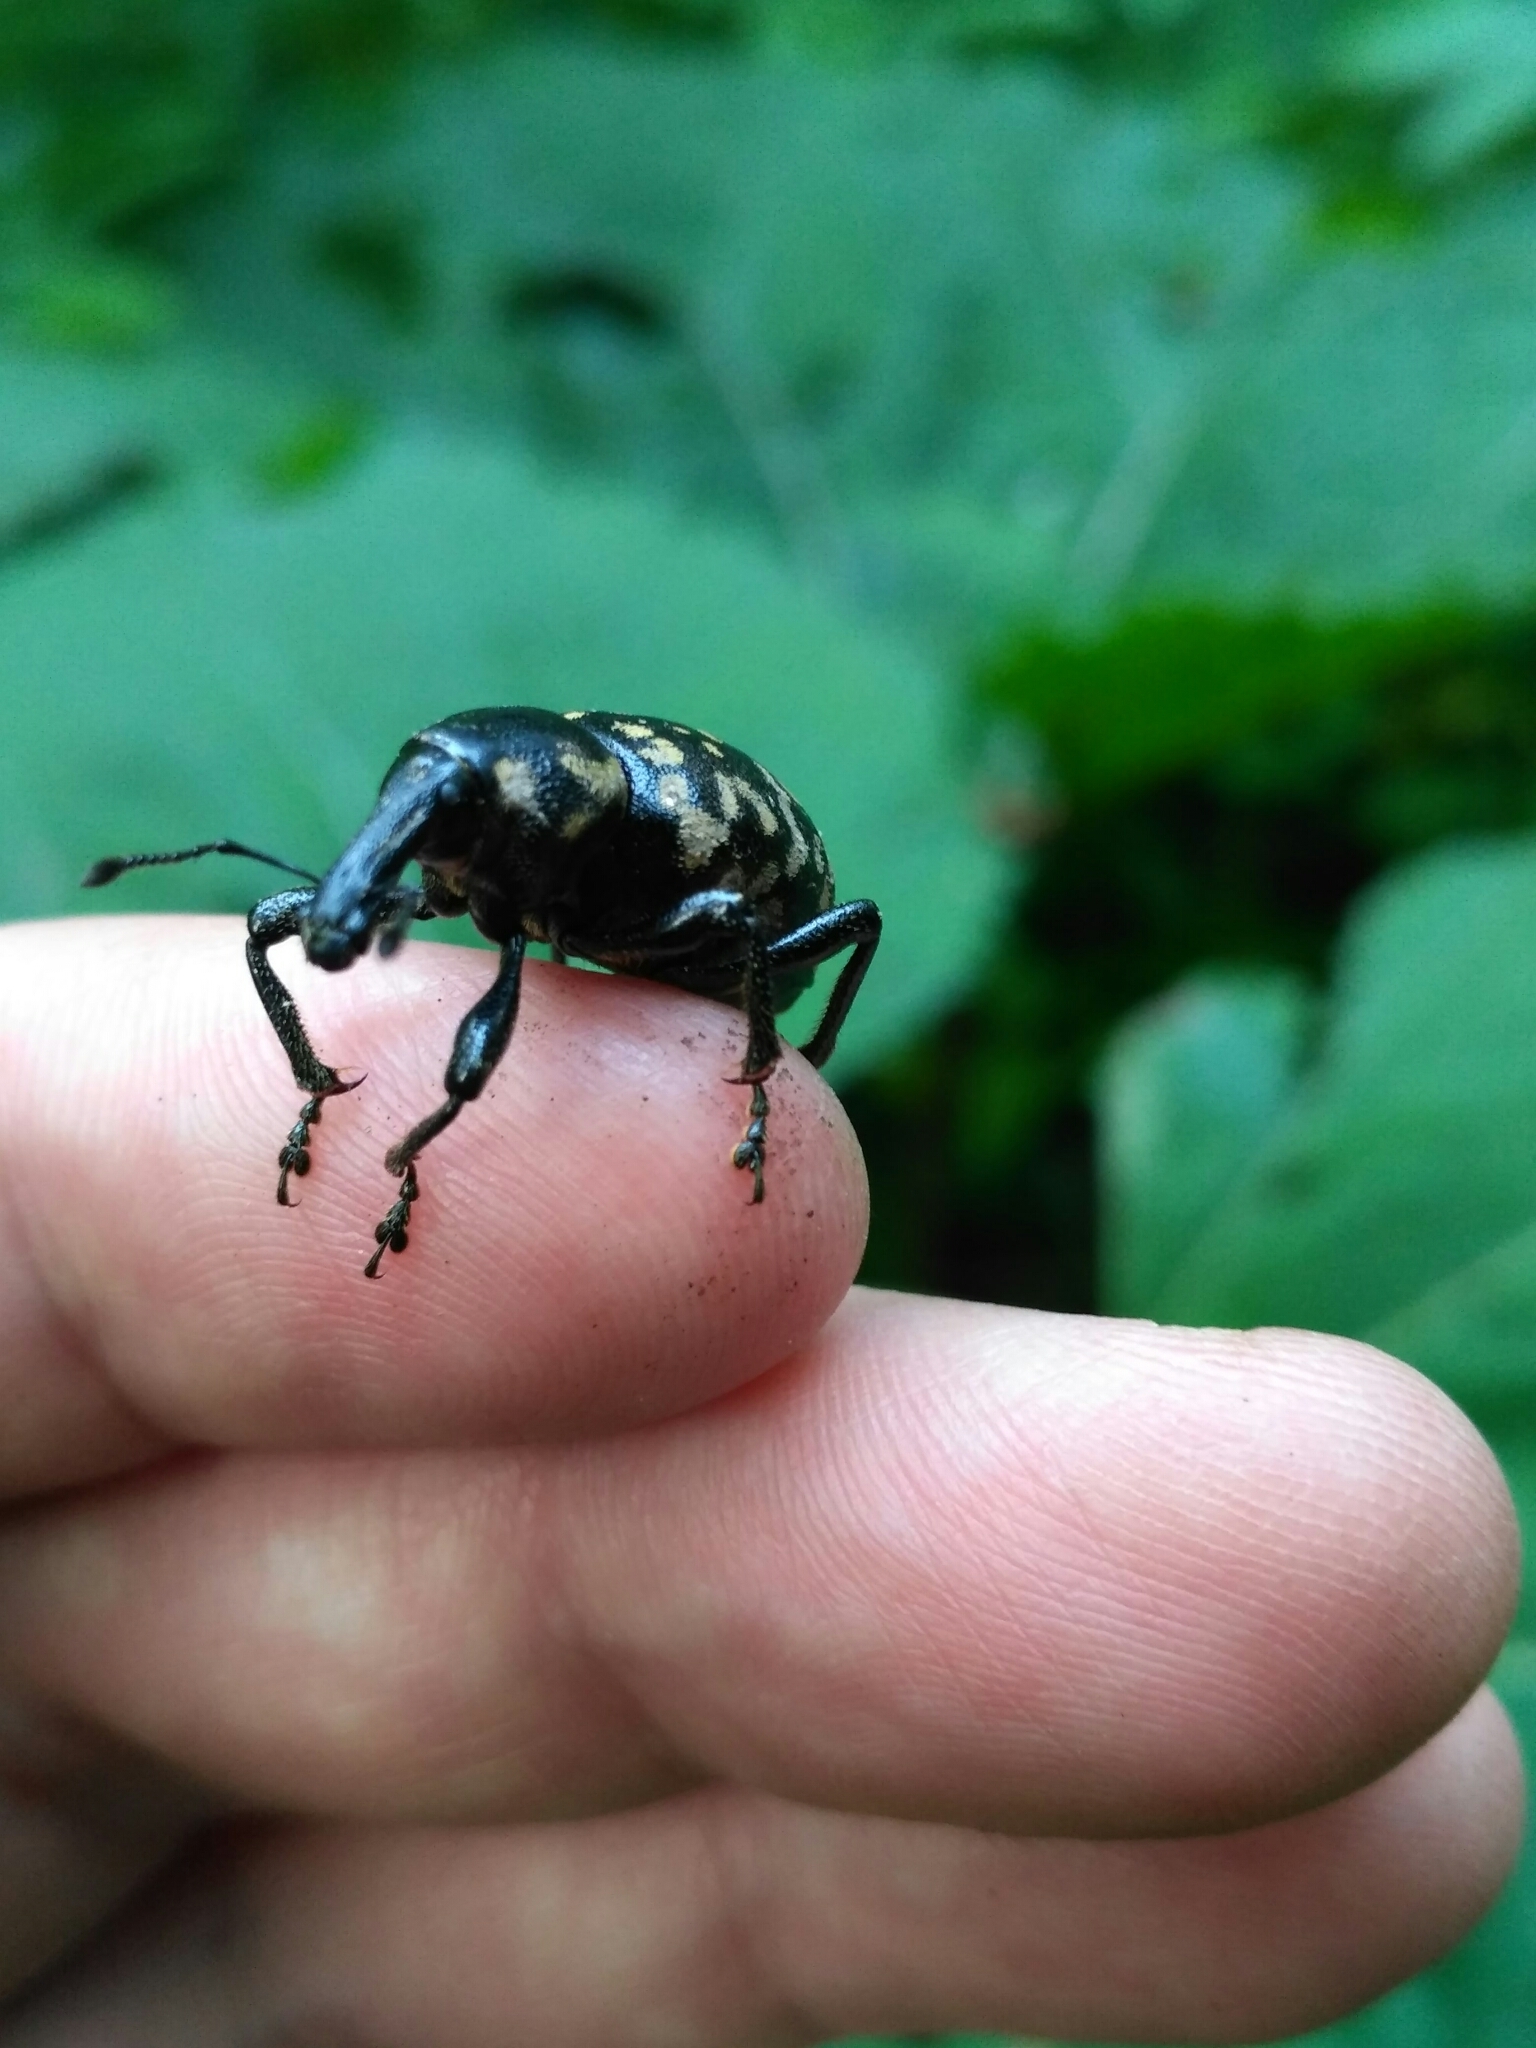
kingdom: Animalia
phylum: Arthropoda
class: Insecta
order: Coleoptera
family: Curculionidae
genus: Liparus
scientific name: Liparus glabrirostris
